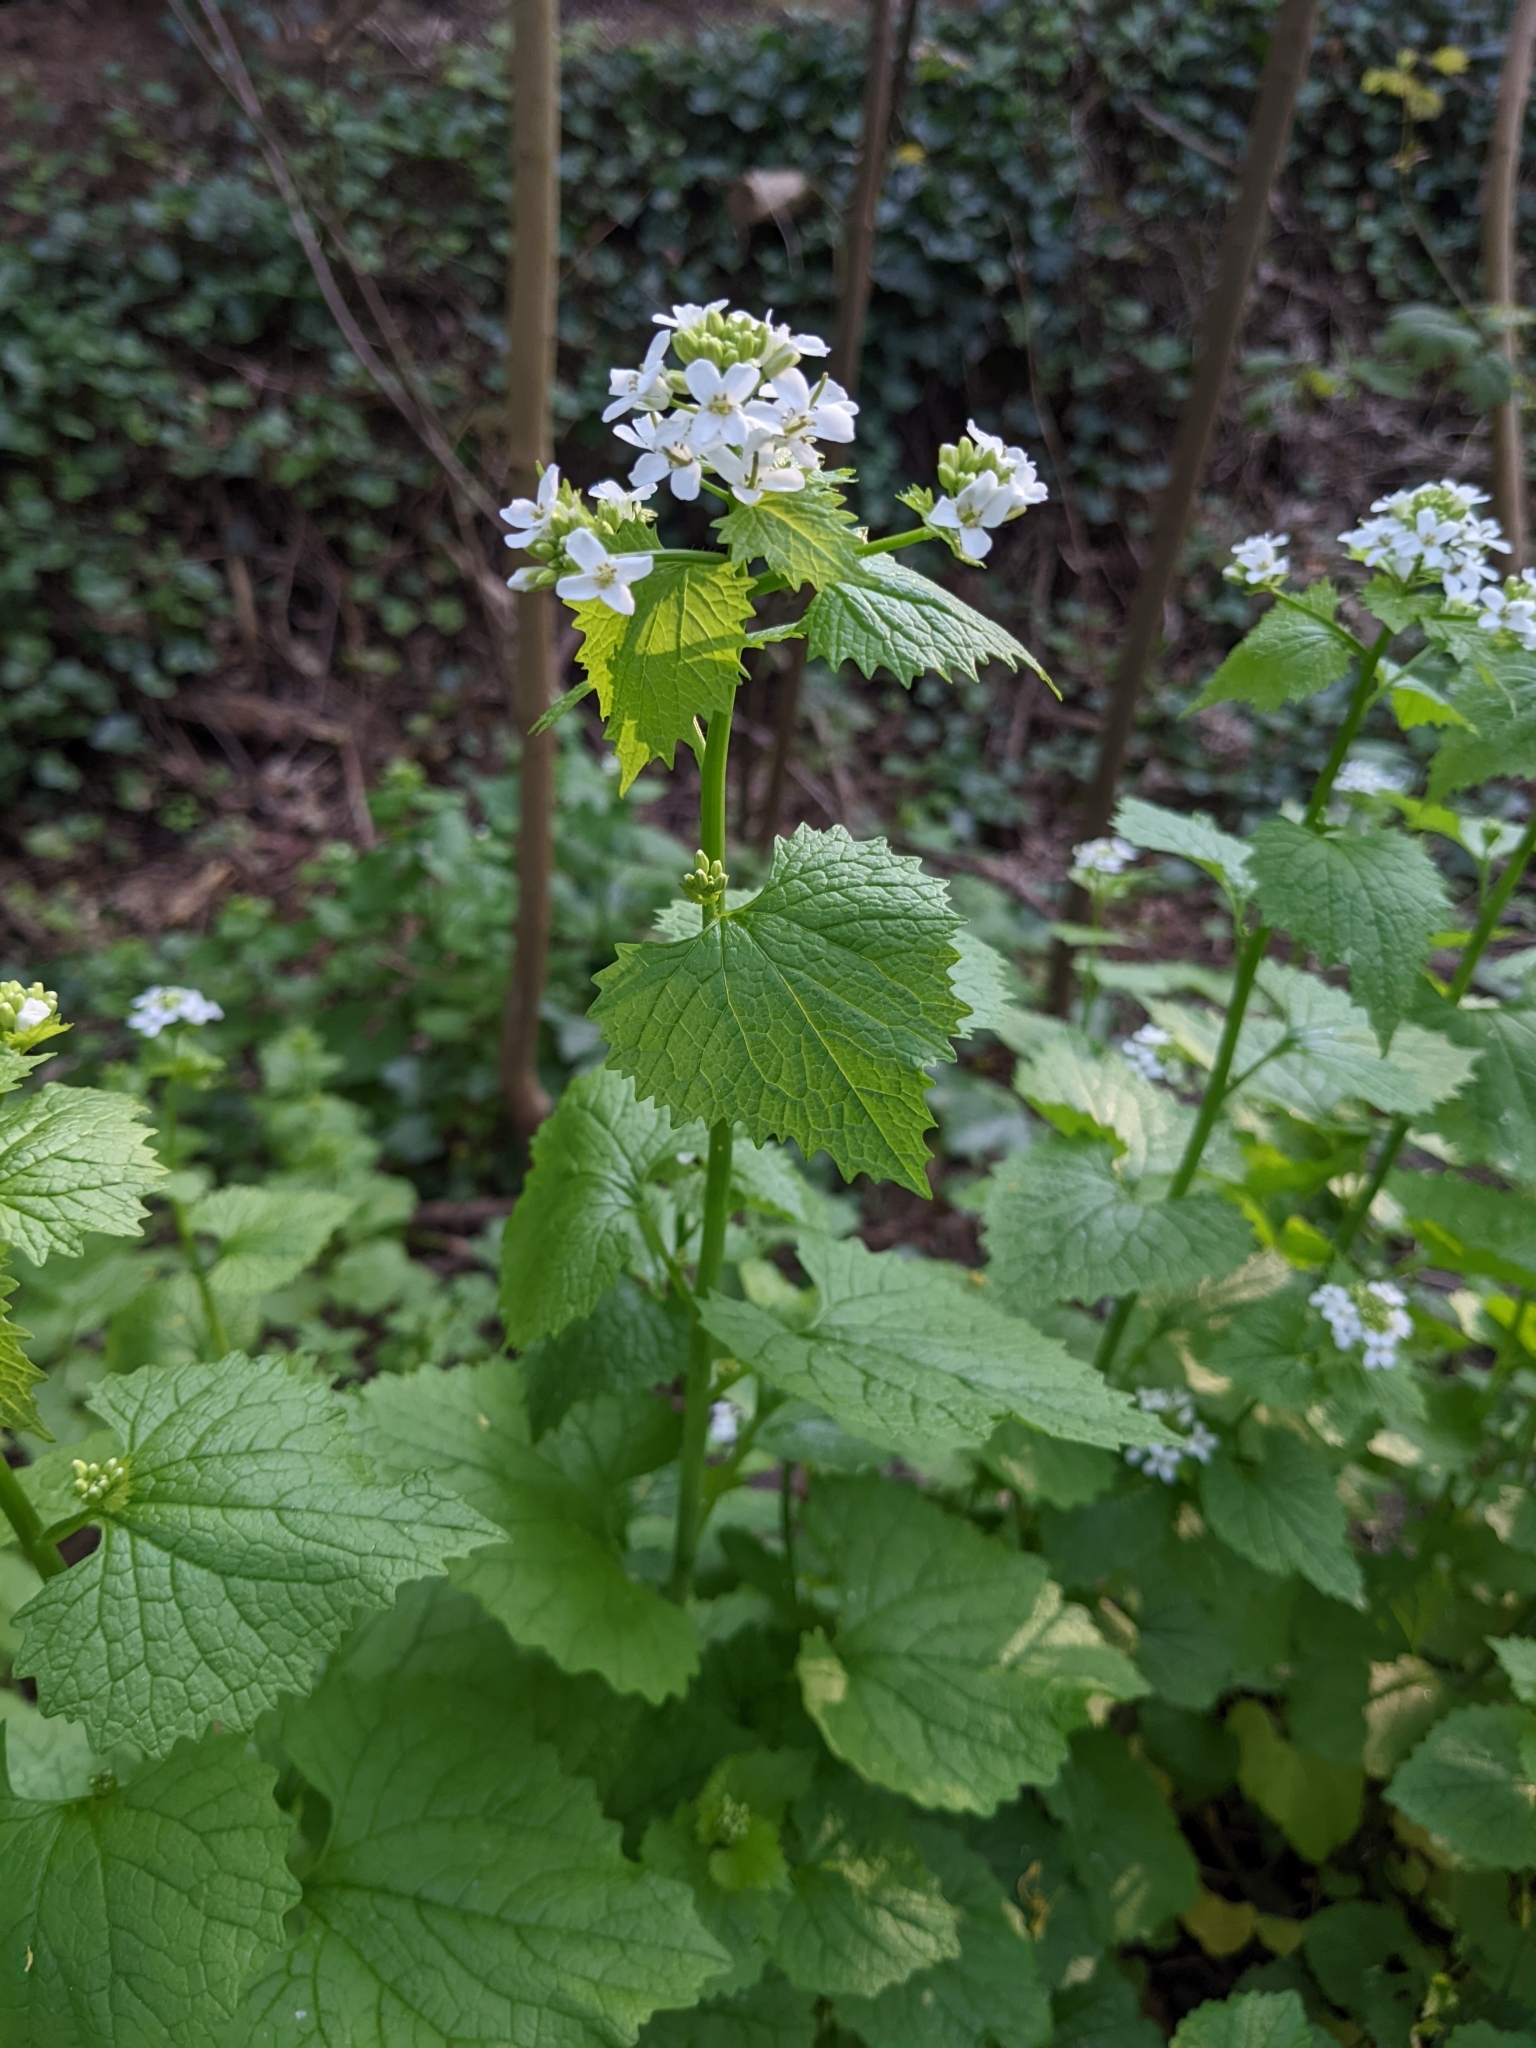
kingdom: Plantae
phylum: Tracheophyta
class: Magnoliopsida
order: Brassicales
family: Brassicaceae
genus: Alliaria
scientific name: Alliaria petiolata
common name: Garlic mustard
